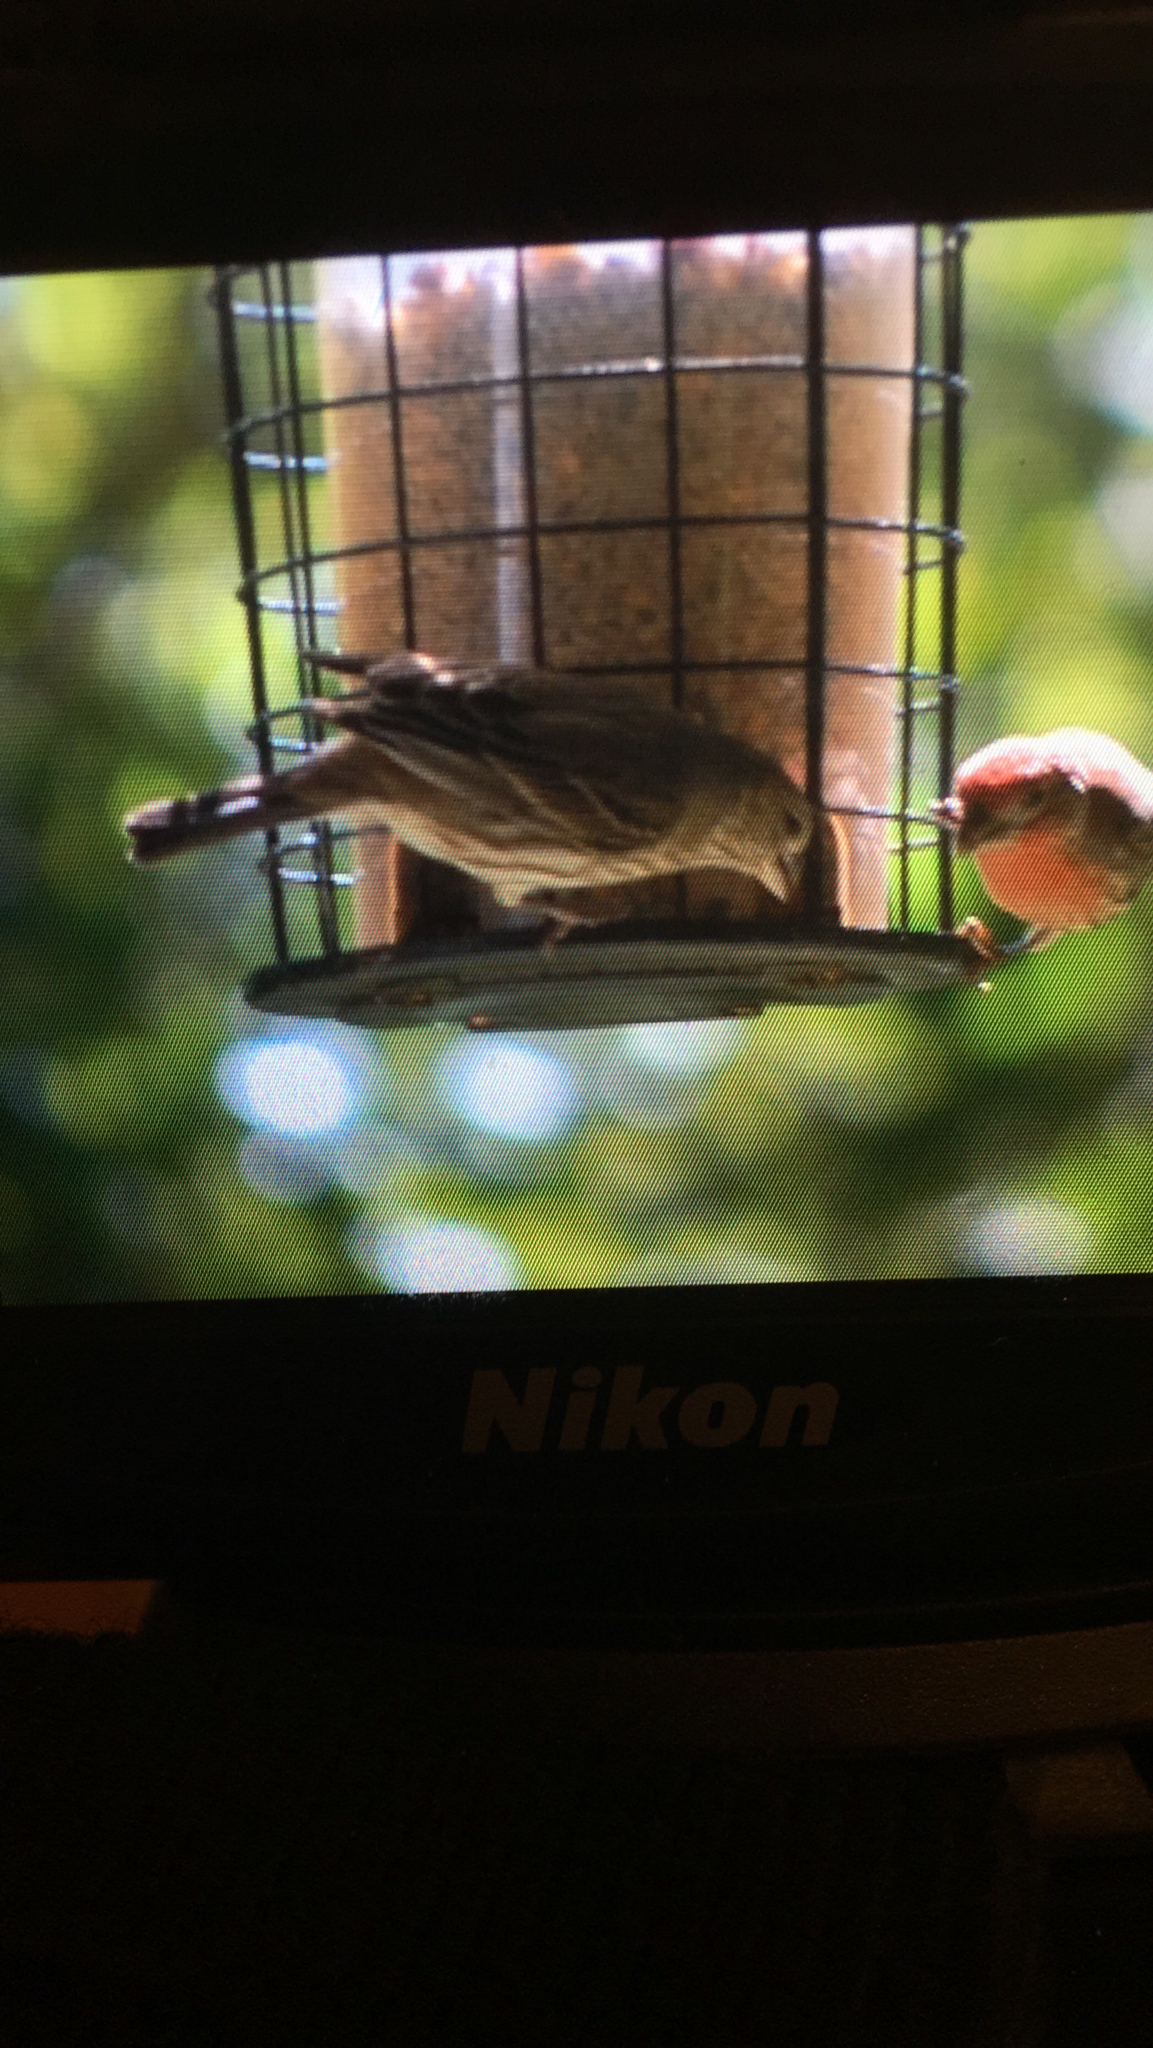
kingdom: Animalia
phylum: Chordata
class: Aves
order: Passeriformes
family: Fringillidae
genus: Haemorhous
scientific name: Haemorhous mexicanus
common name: House finch
